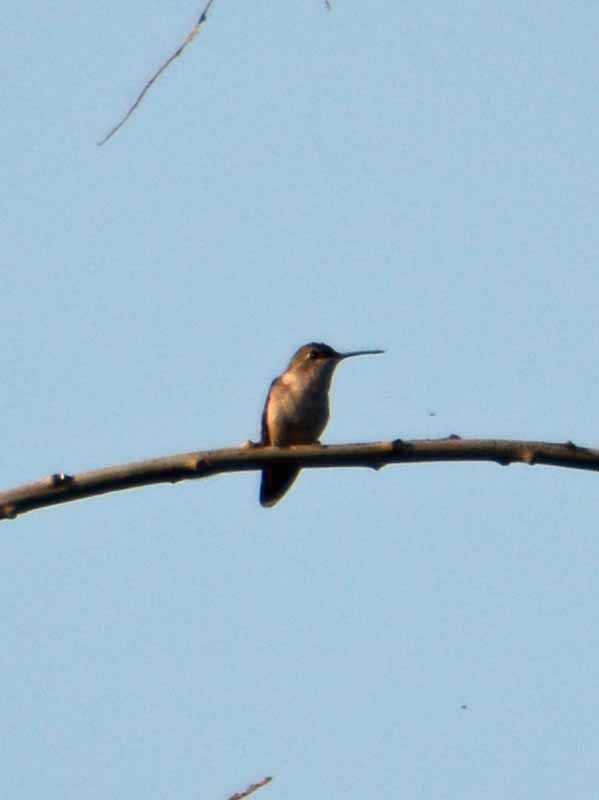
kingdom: Animalia
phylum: Chordata
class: Aves
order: Apodiformes
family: Trochilidae
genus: Archilochus
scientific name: Archilochus colubris
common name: Ruby-throated hummingbird
